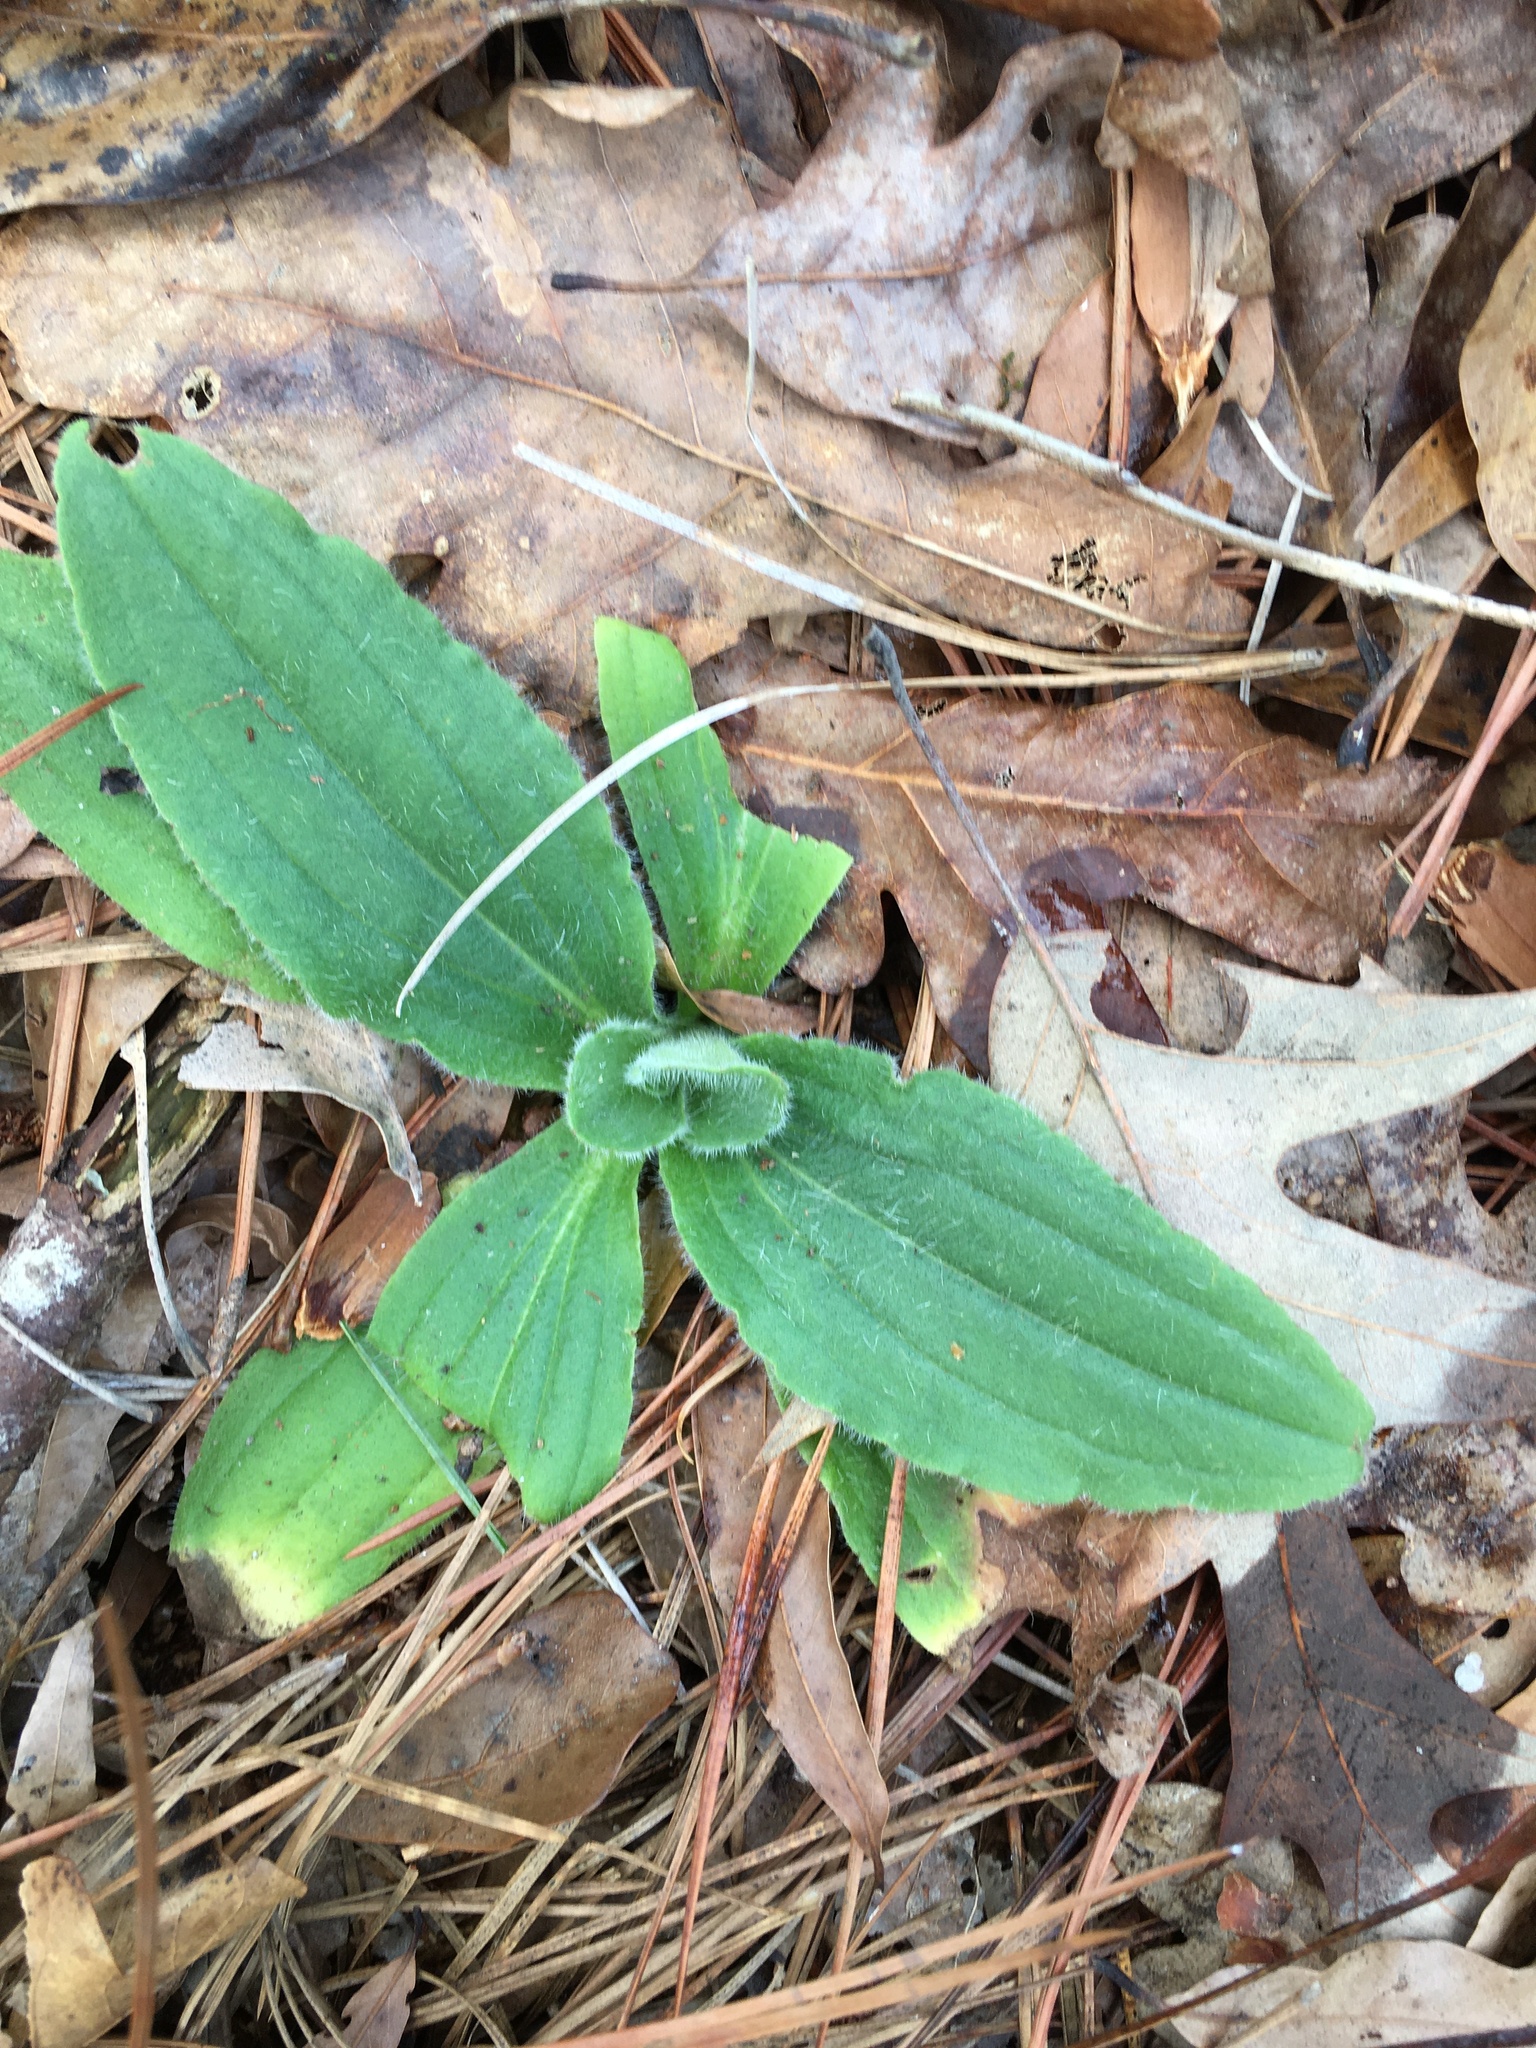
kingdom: Plantae
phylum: Tracheophyta
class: Magnoliopsida
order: Asterales
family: Asteraceae
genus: Arnica
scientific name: Arnica acaulis
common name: Common leopardbane
